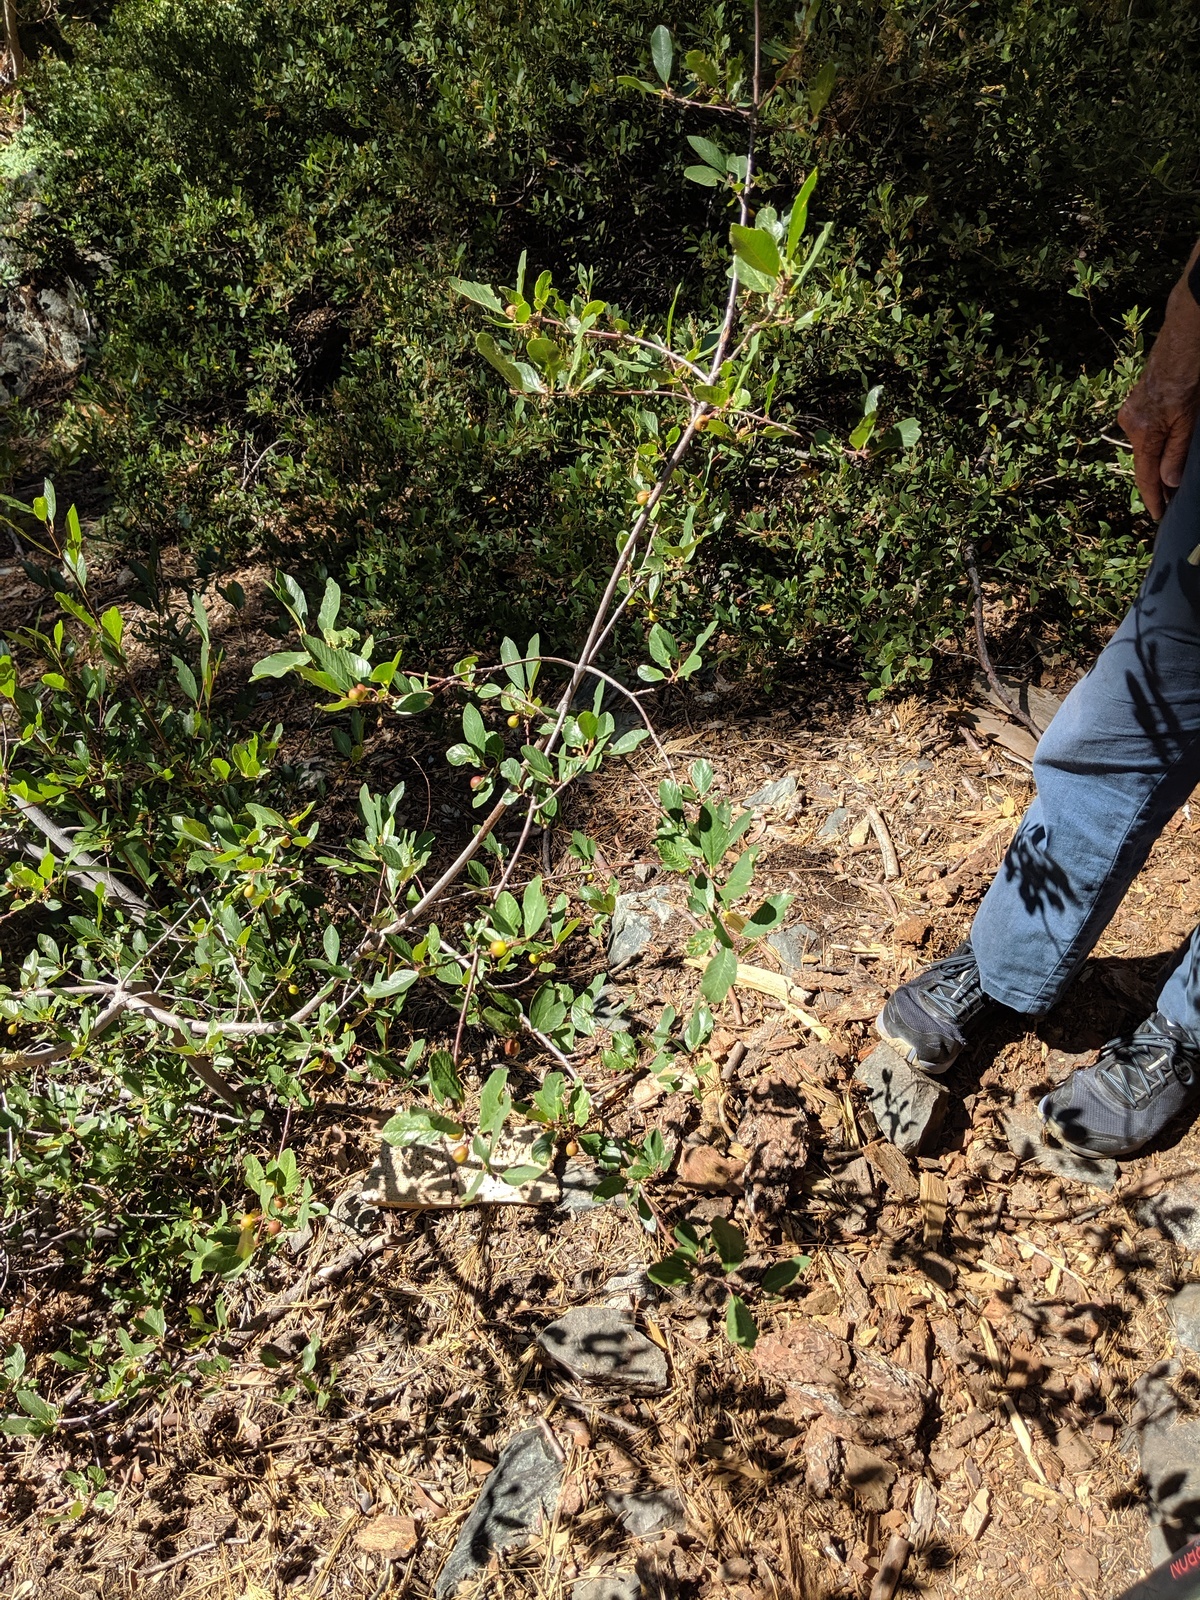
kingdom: Plantae
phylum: Tracheophyta
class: Magnoliopsida
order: Rosales
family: Rhamnaceae
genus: Frangula
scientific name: Frangula californica
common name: California buckthorn
